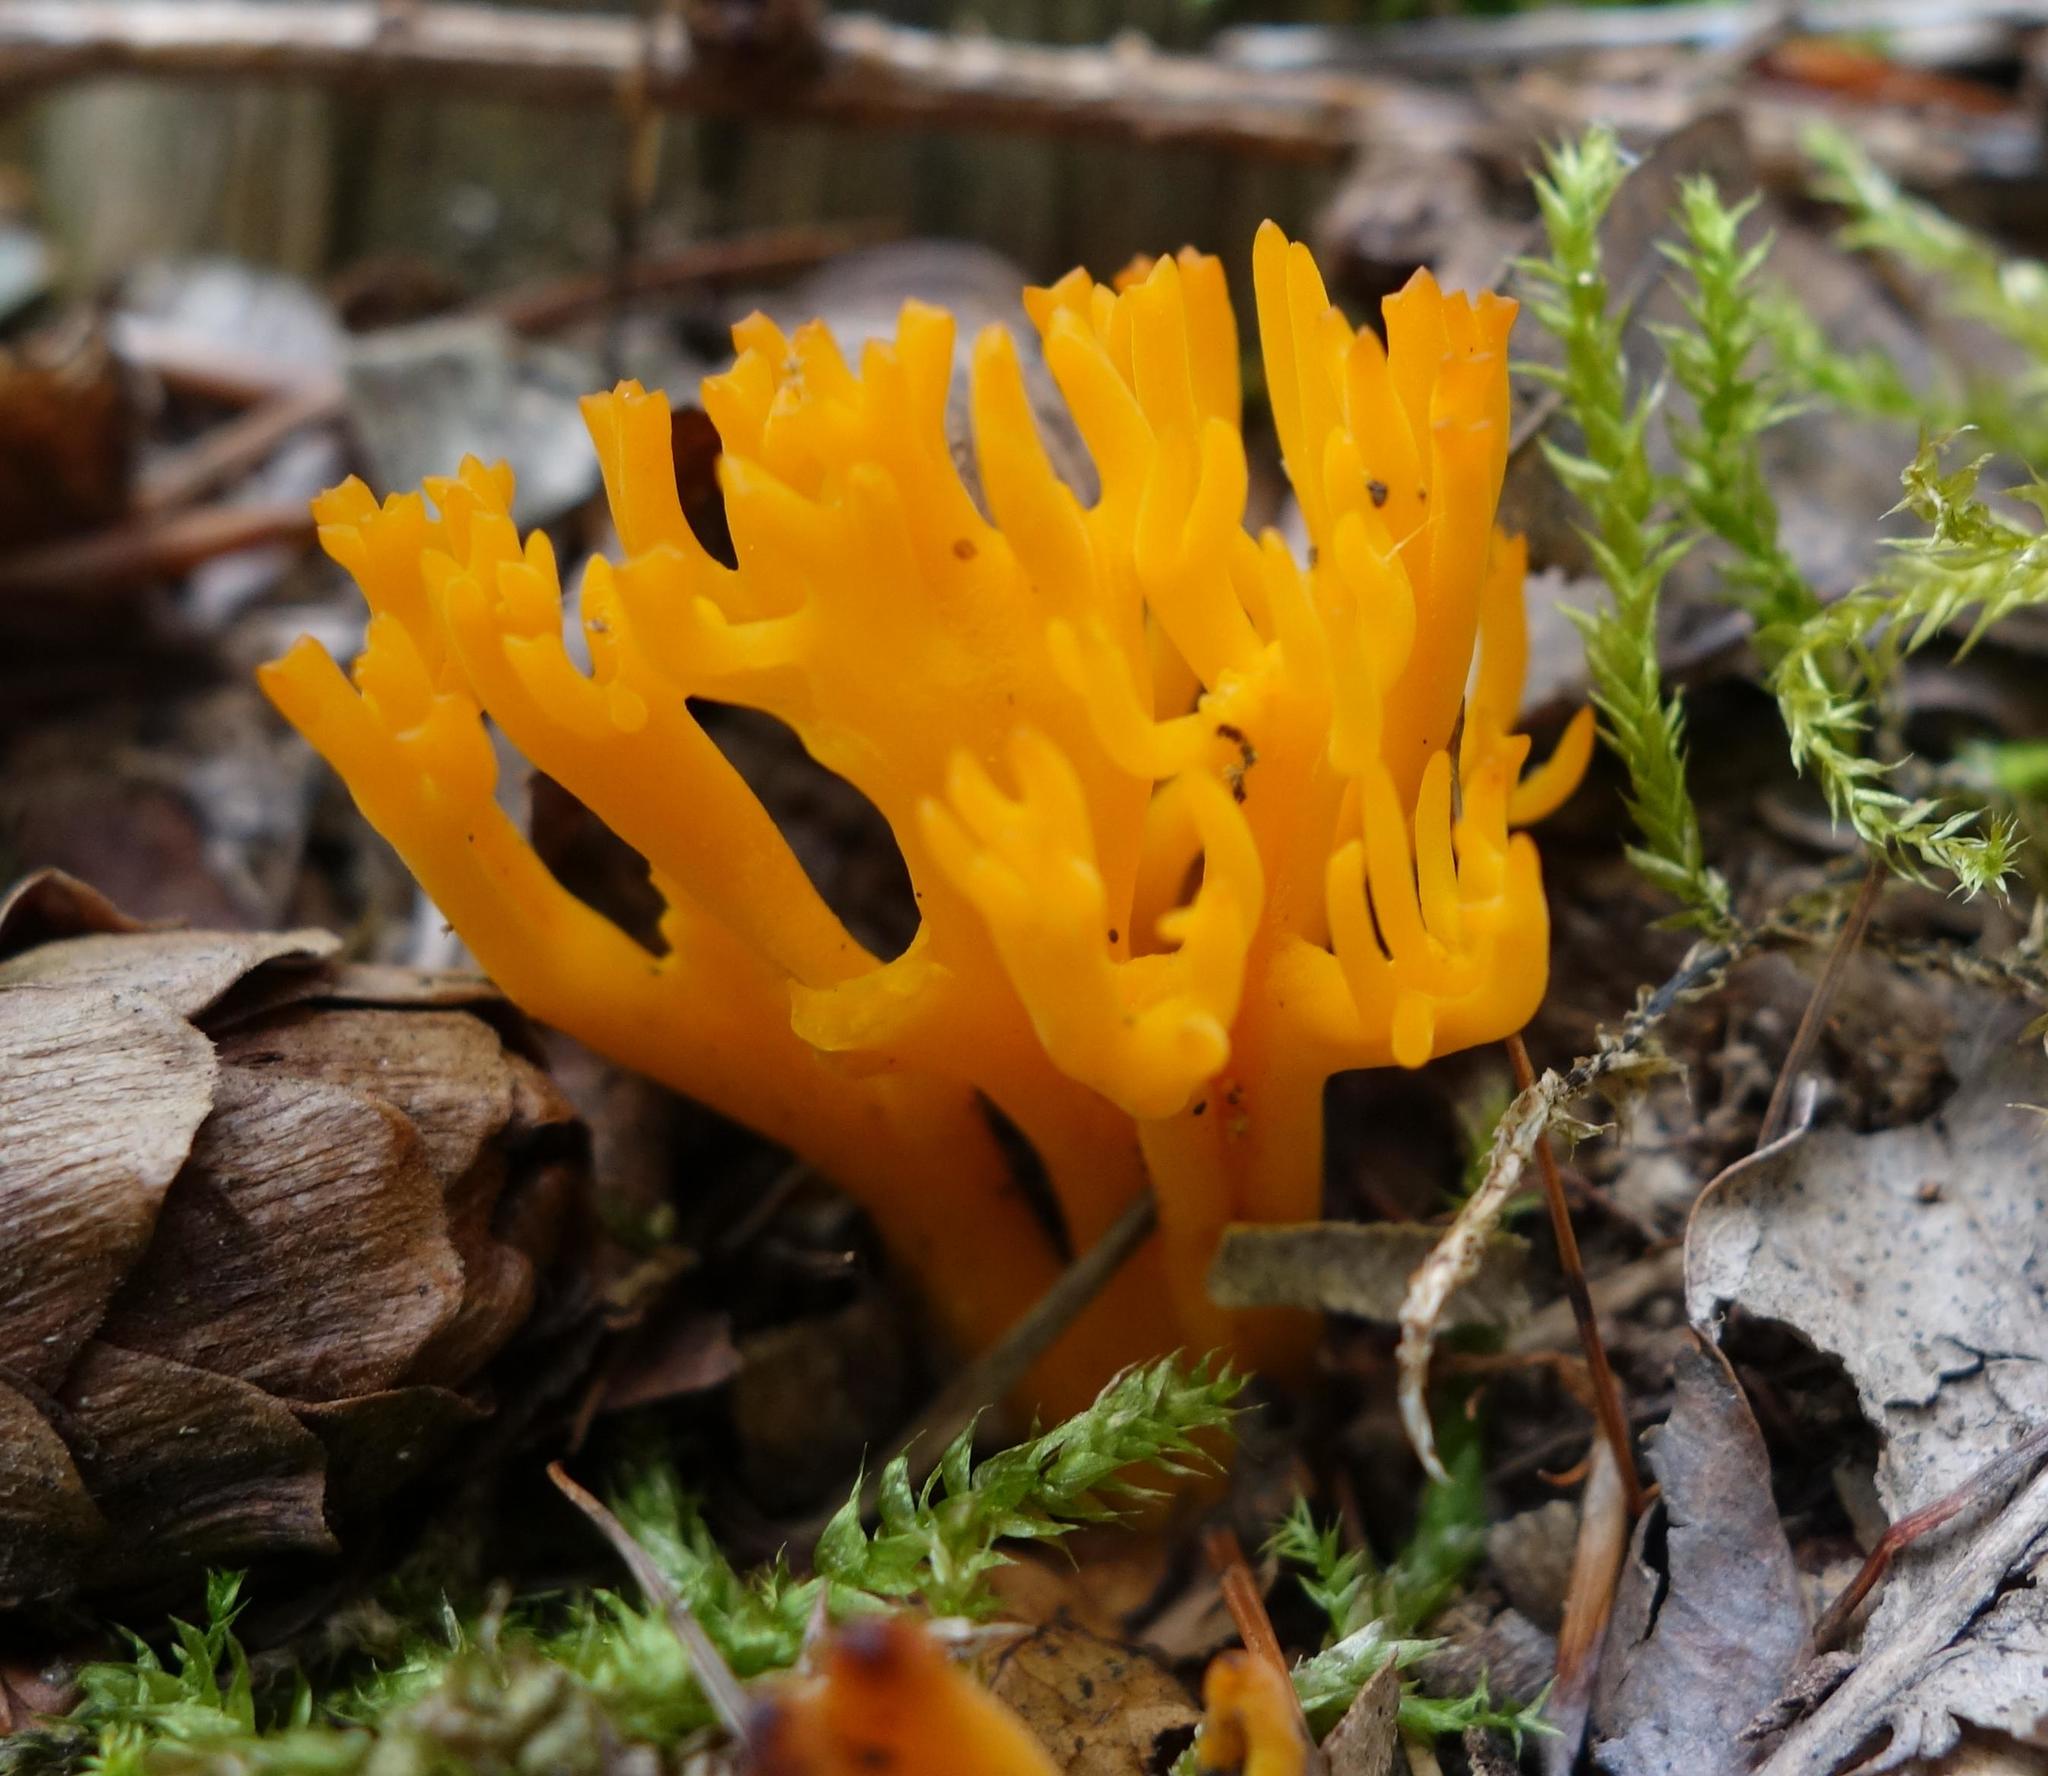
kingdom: Fungi
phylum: Basidiomycota
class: Dacrymycetes
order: Dacrymycetales
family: Dacrymycetaceae
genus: Calocera
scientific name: Calocera viscosa
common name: Yellow stagshorn
